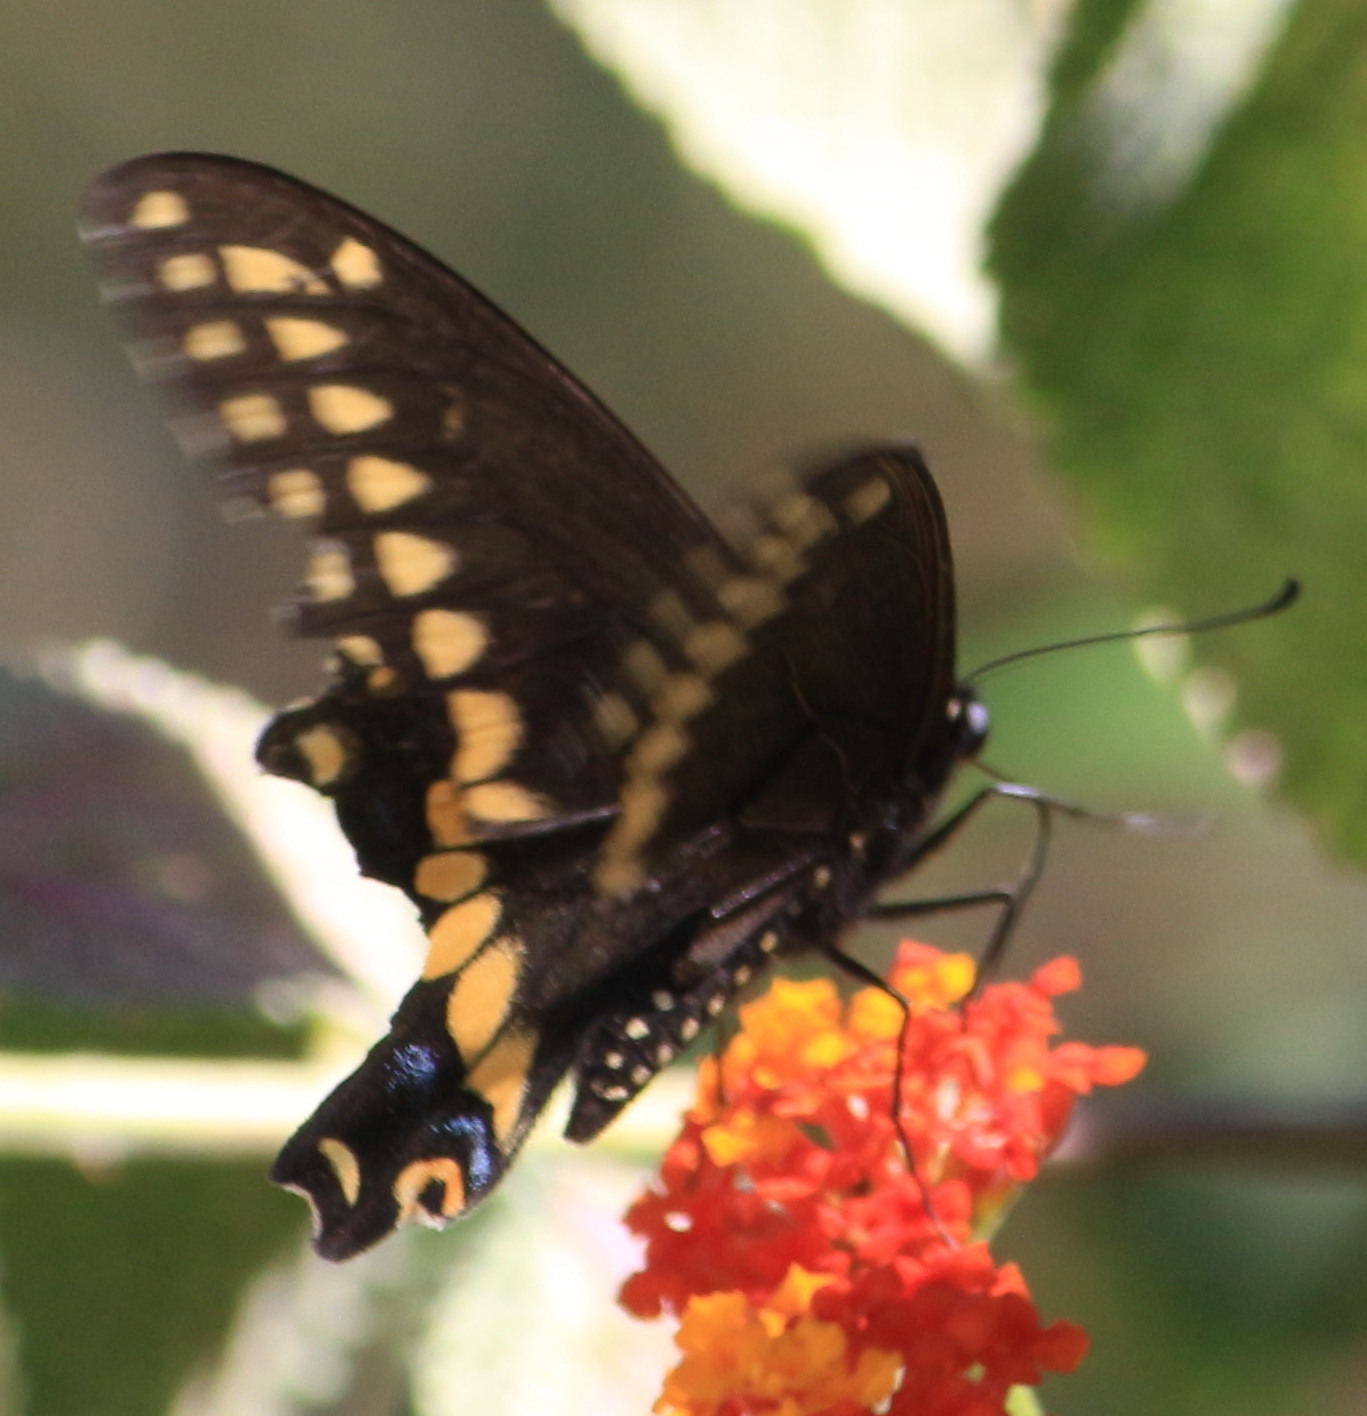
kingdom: Animalia
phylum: Arthropoda
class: Insecta
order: Lepidoptera
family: Papilionidae
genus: Papilio
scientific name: Papilio polyxenes
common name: Black swallowtail
